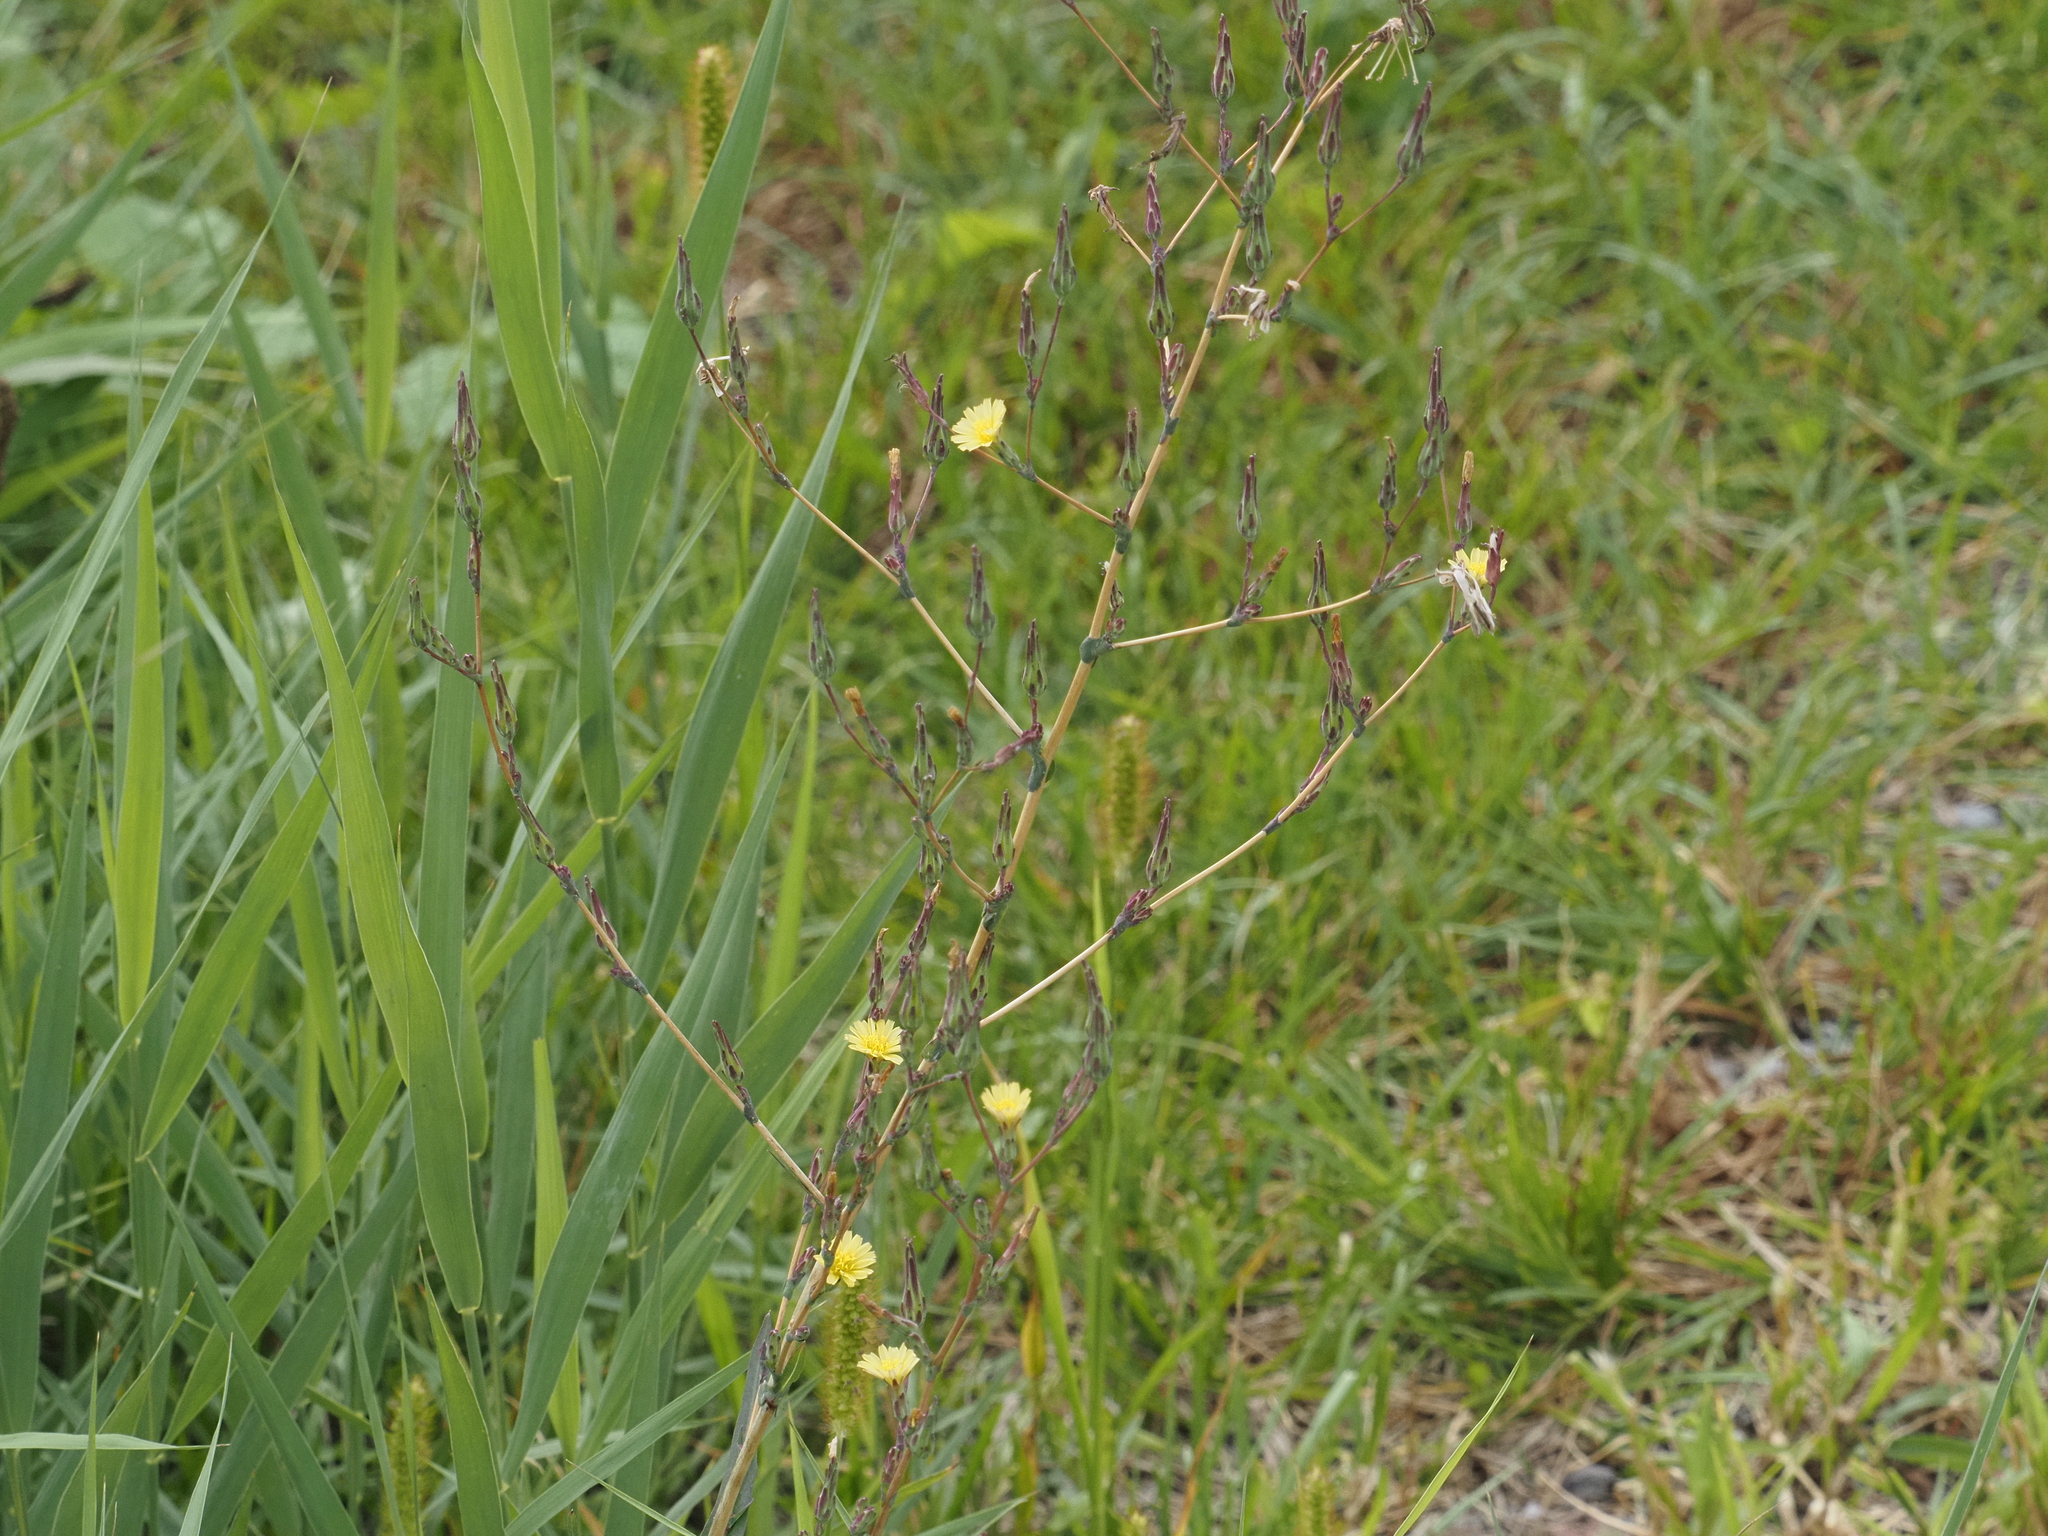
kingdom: Plantae
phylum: Tracheophyta
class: Magnoliopsida
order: Asterales
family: Asteraceae
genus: Lactuca
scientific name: Lactuca serriola
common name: Prickly lettuce
